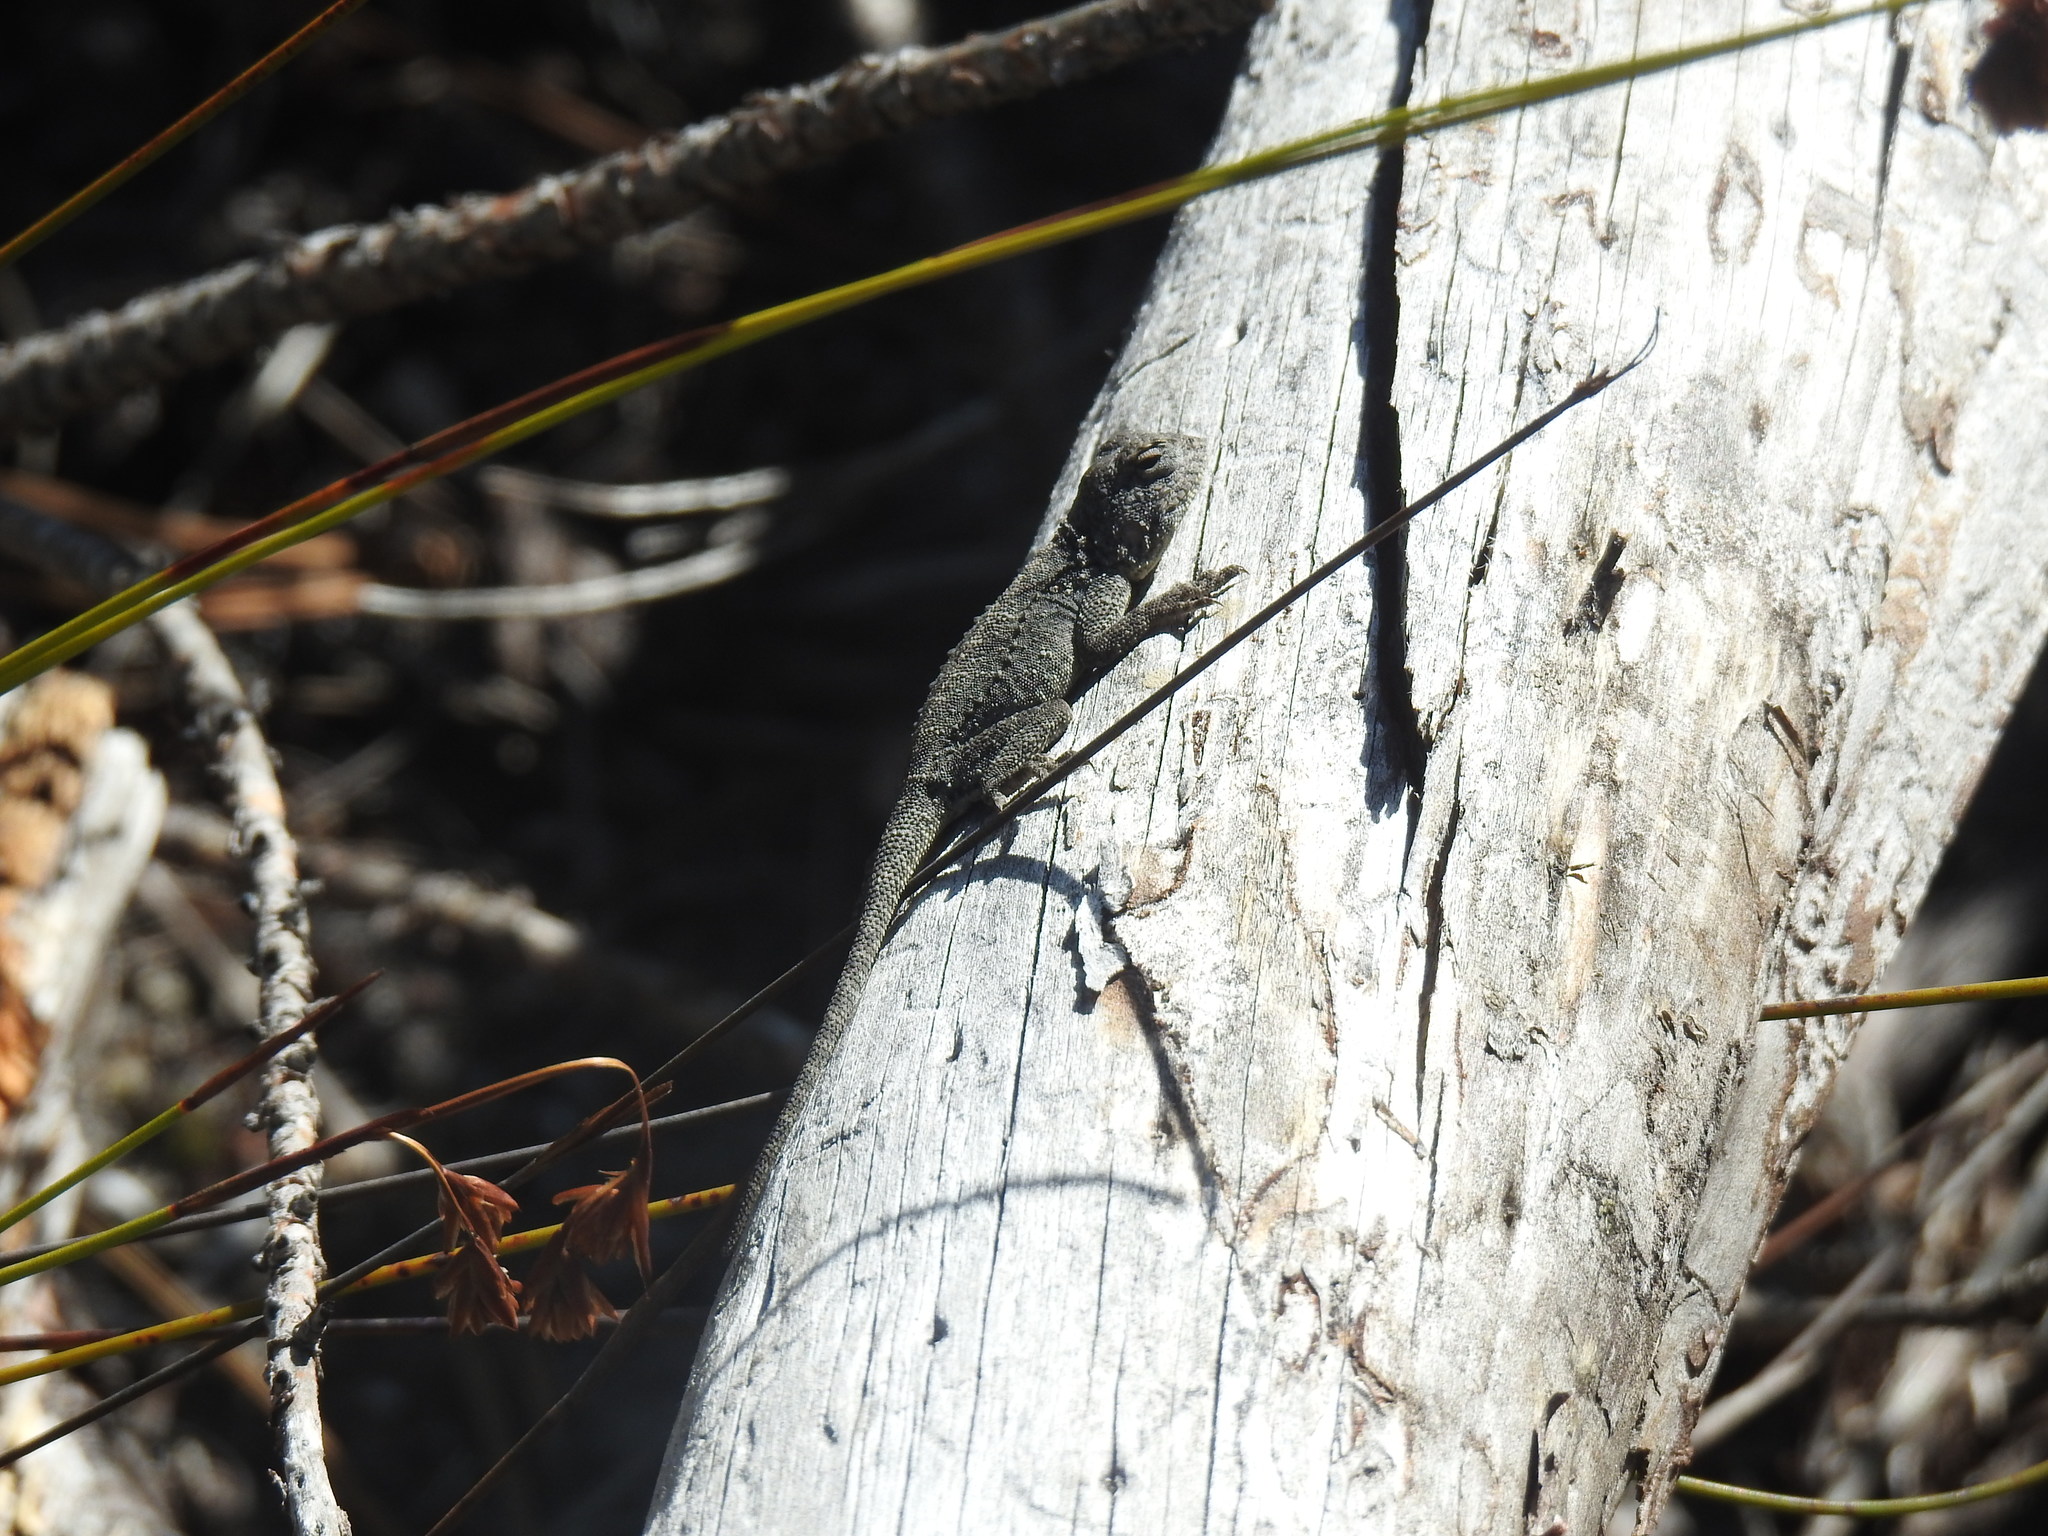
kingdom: Animalia
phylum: Chordata
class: Squamata
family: Agamidae
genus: Agama
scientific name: Agama atra
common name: Southern african rock agama
